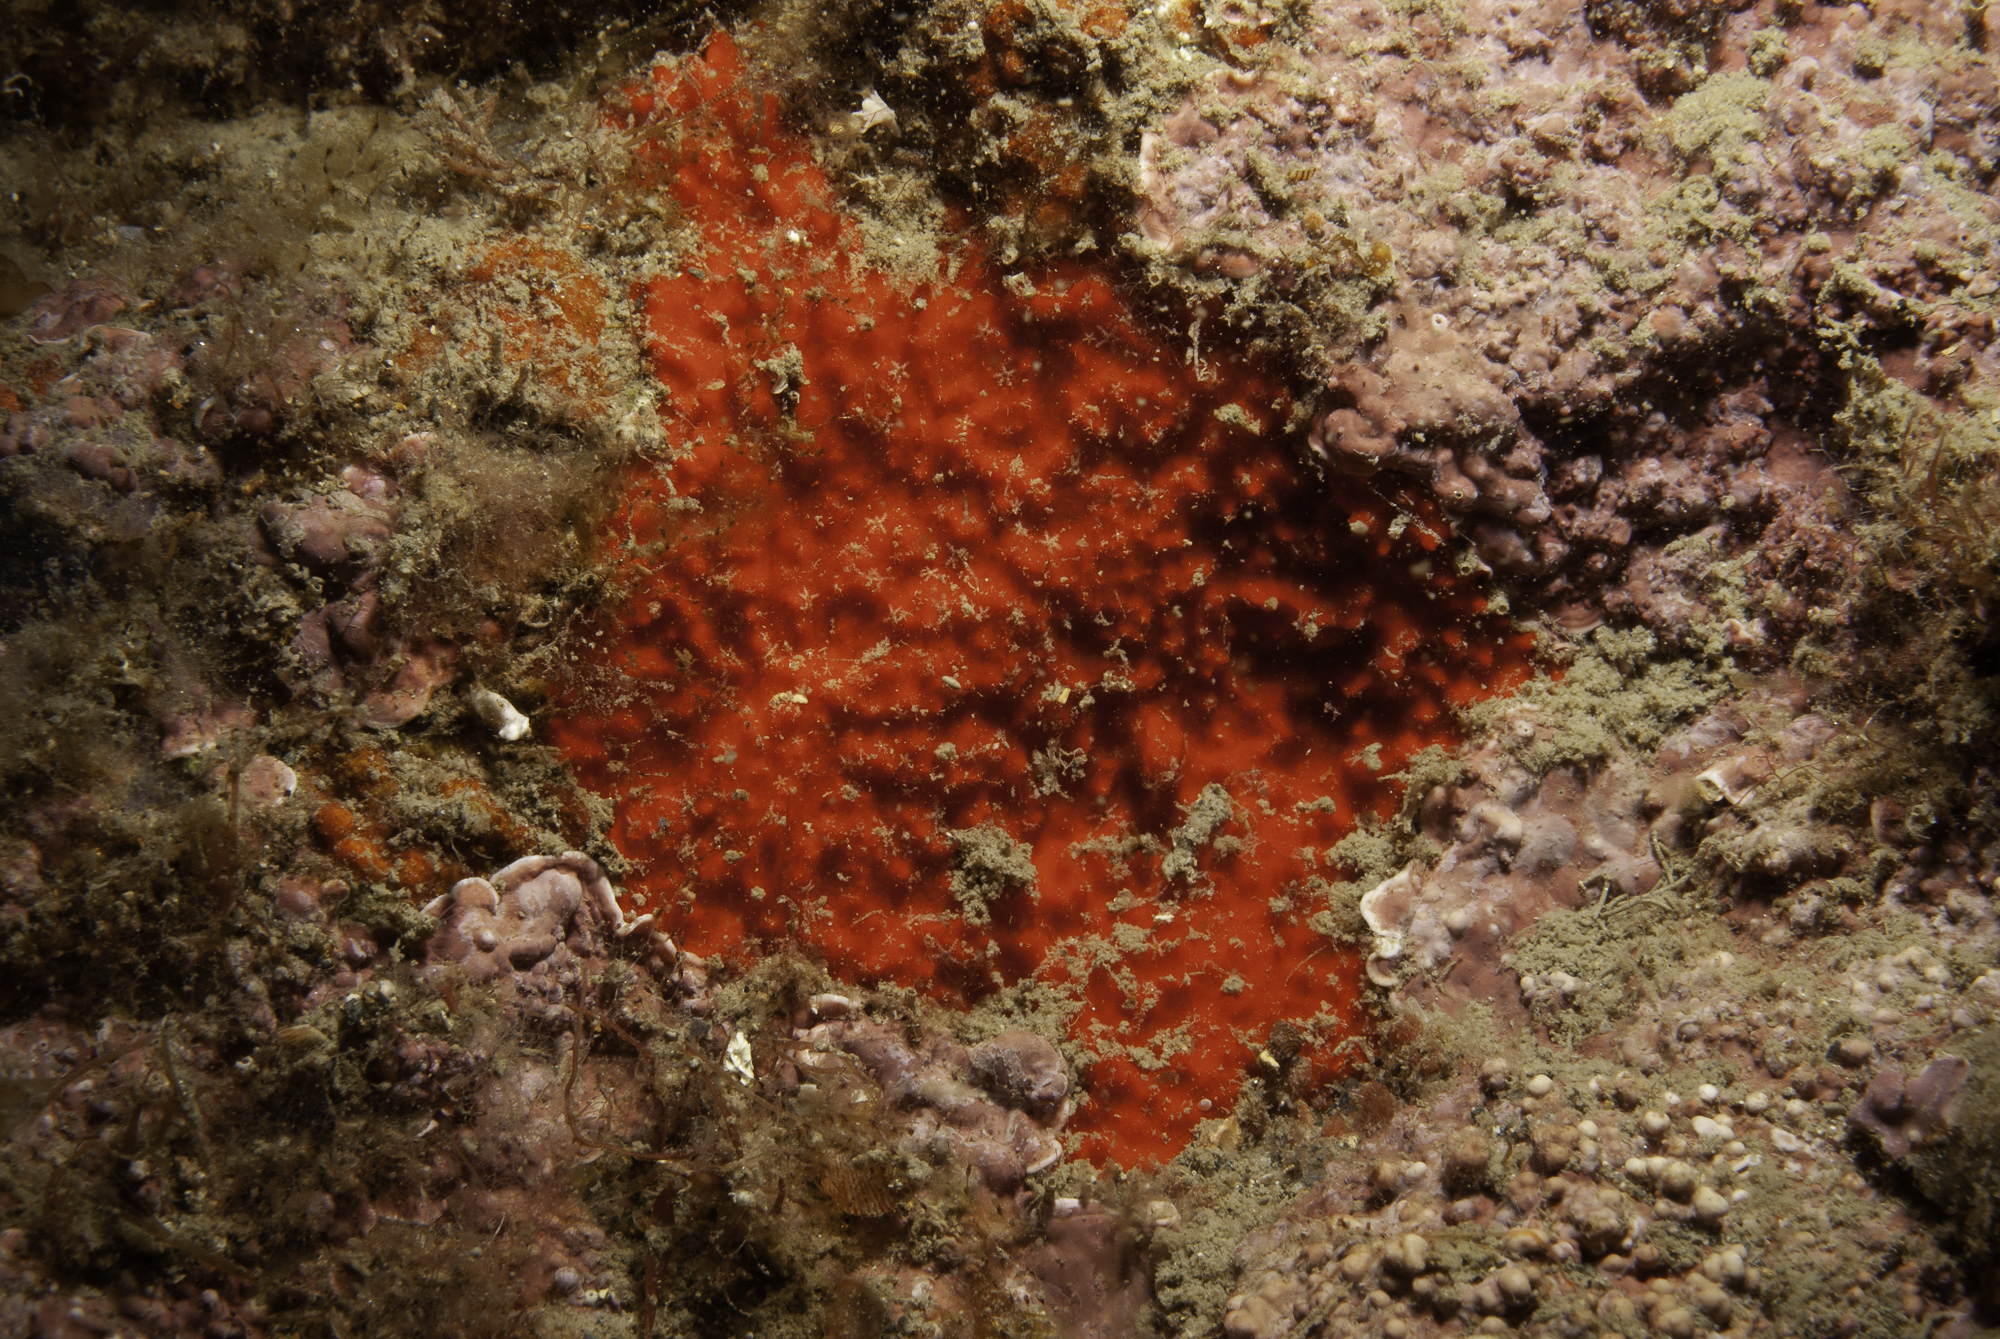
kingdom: Animalia
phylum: Porifera
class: Demospongiae
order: Axinellida
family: Raspailiidae
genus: Raspaciona
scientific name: Raspaciona aculeata
